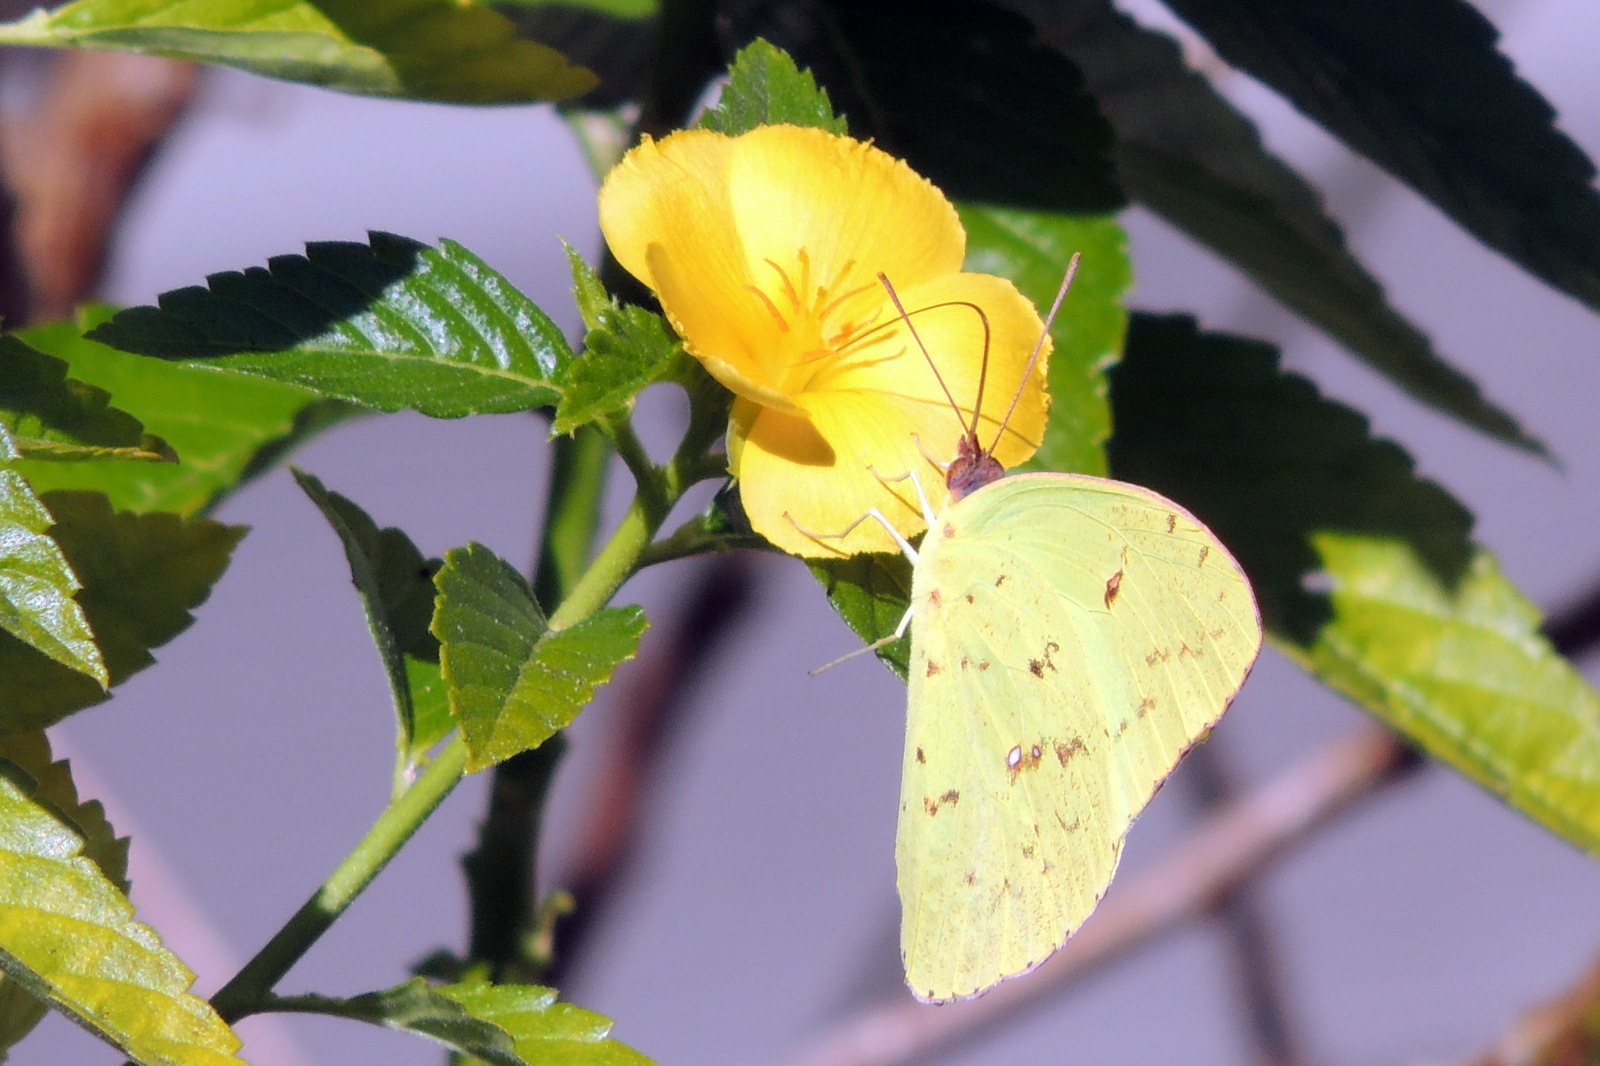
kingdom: Plantae
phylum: Tracheophyta
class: Magnoliopsida
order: Malpighiales
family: Turneraceae
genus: Turnera
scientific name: Turnera ulmifolia
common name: Ramgoat dashalong
